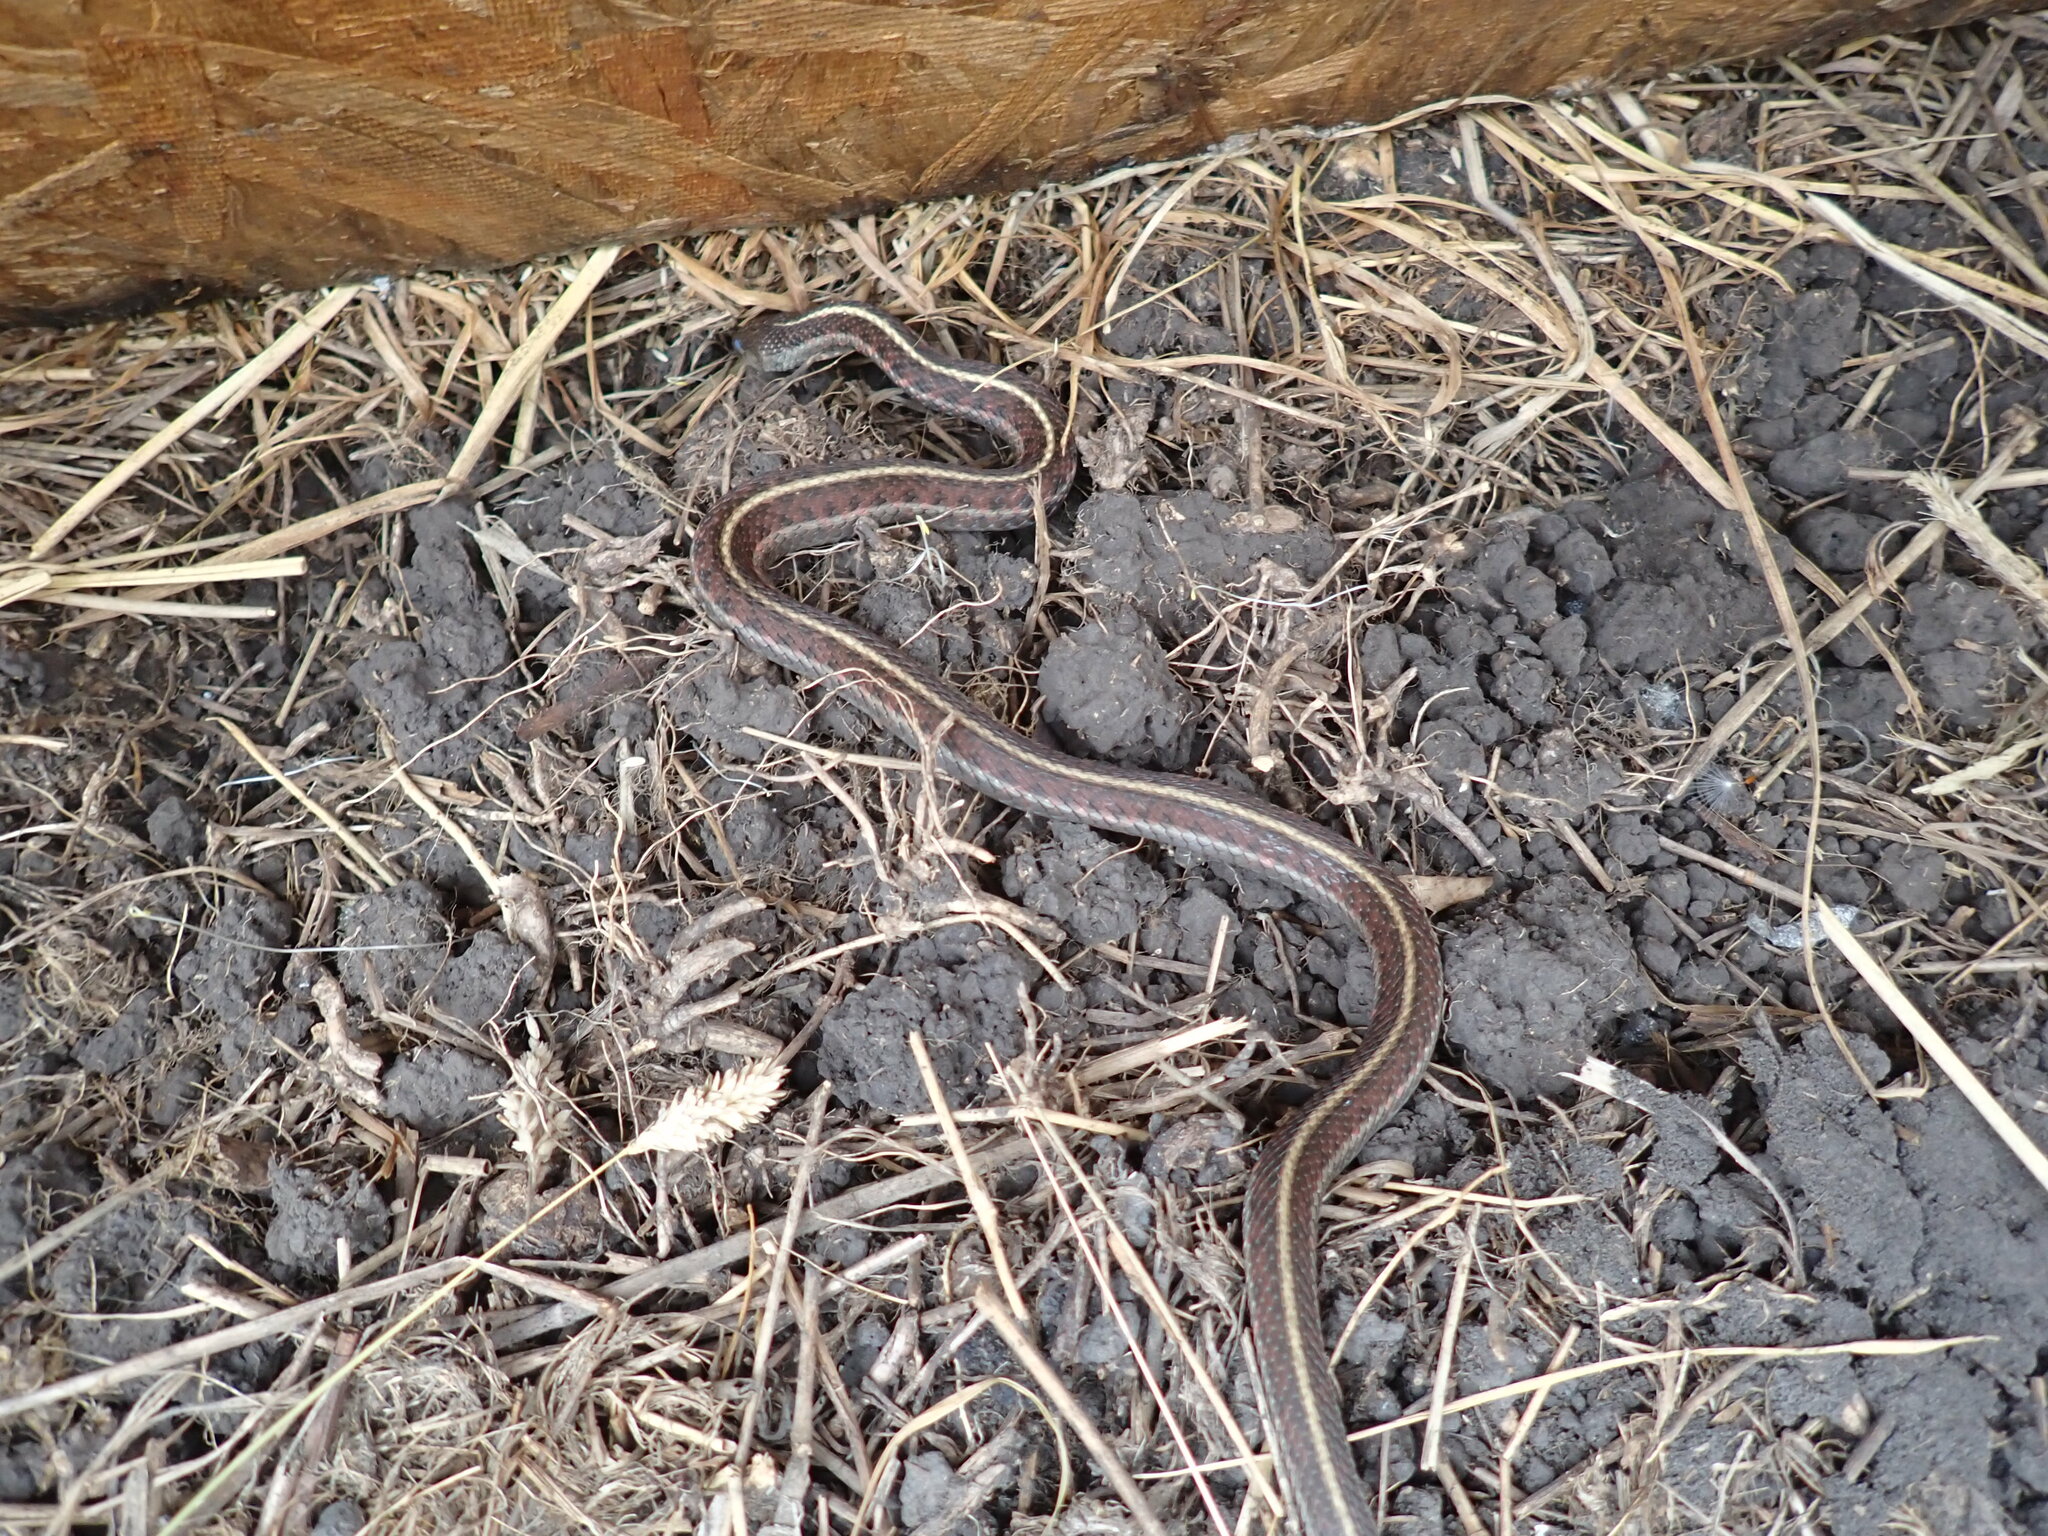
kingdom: Animalia
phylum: Chordata
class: Squamata
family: Colubridae
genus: Thamnophis
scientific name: Thamnophis elegans
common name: Western terrestrial garter snake
